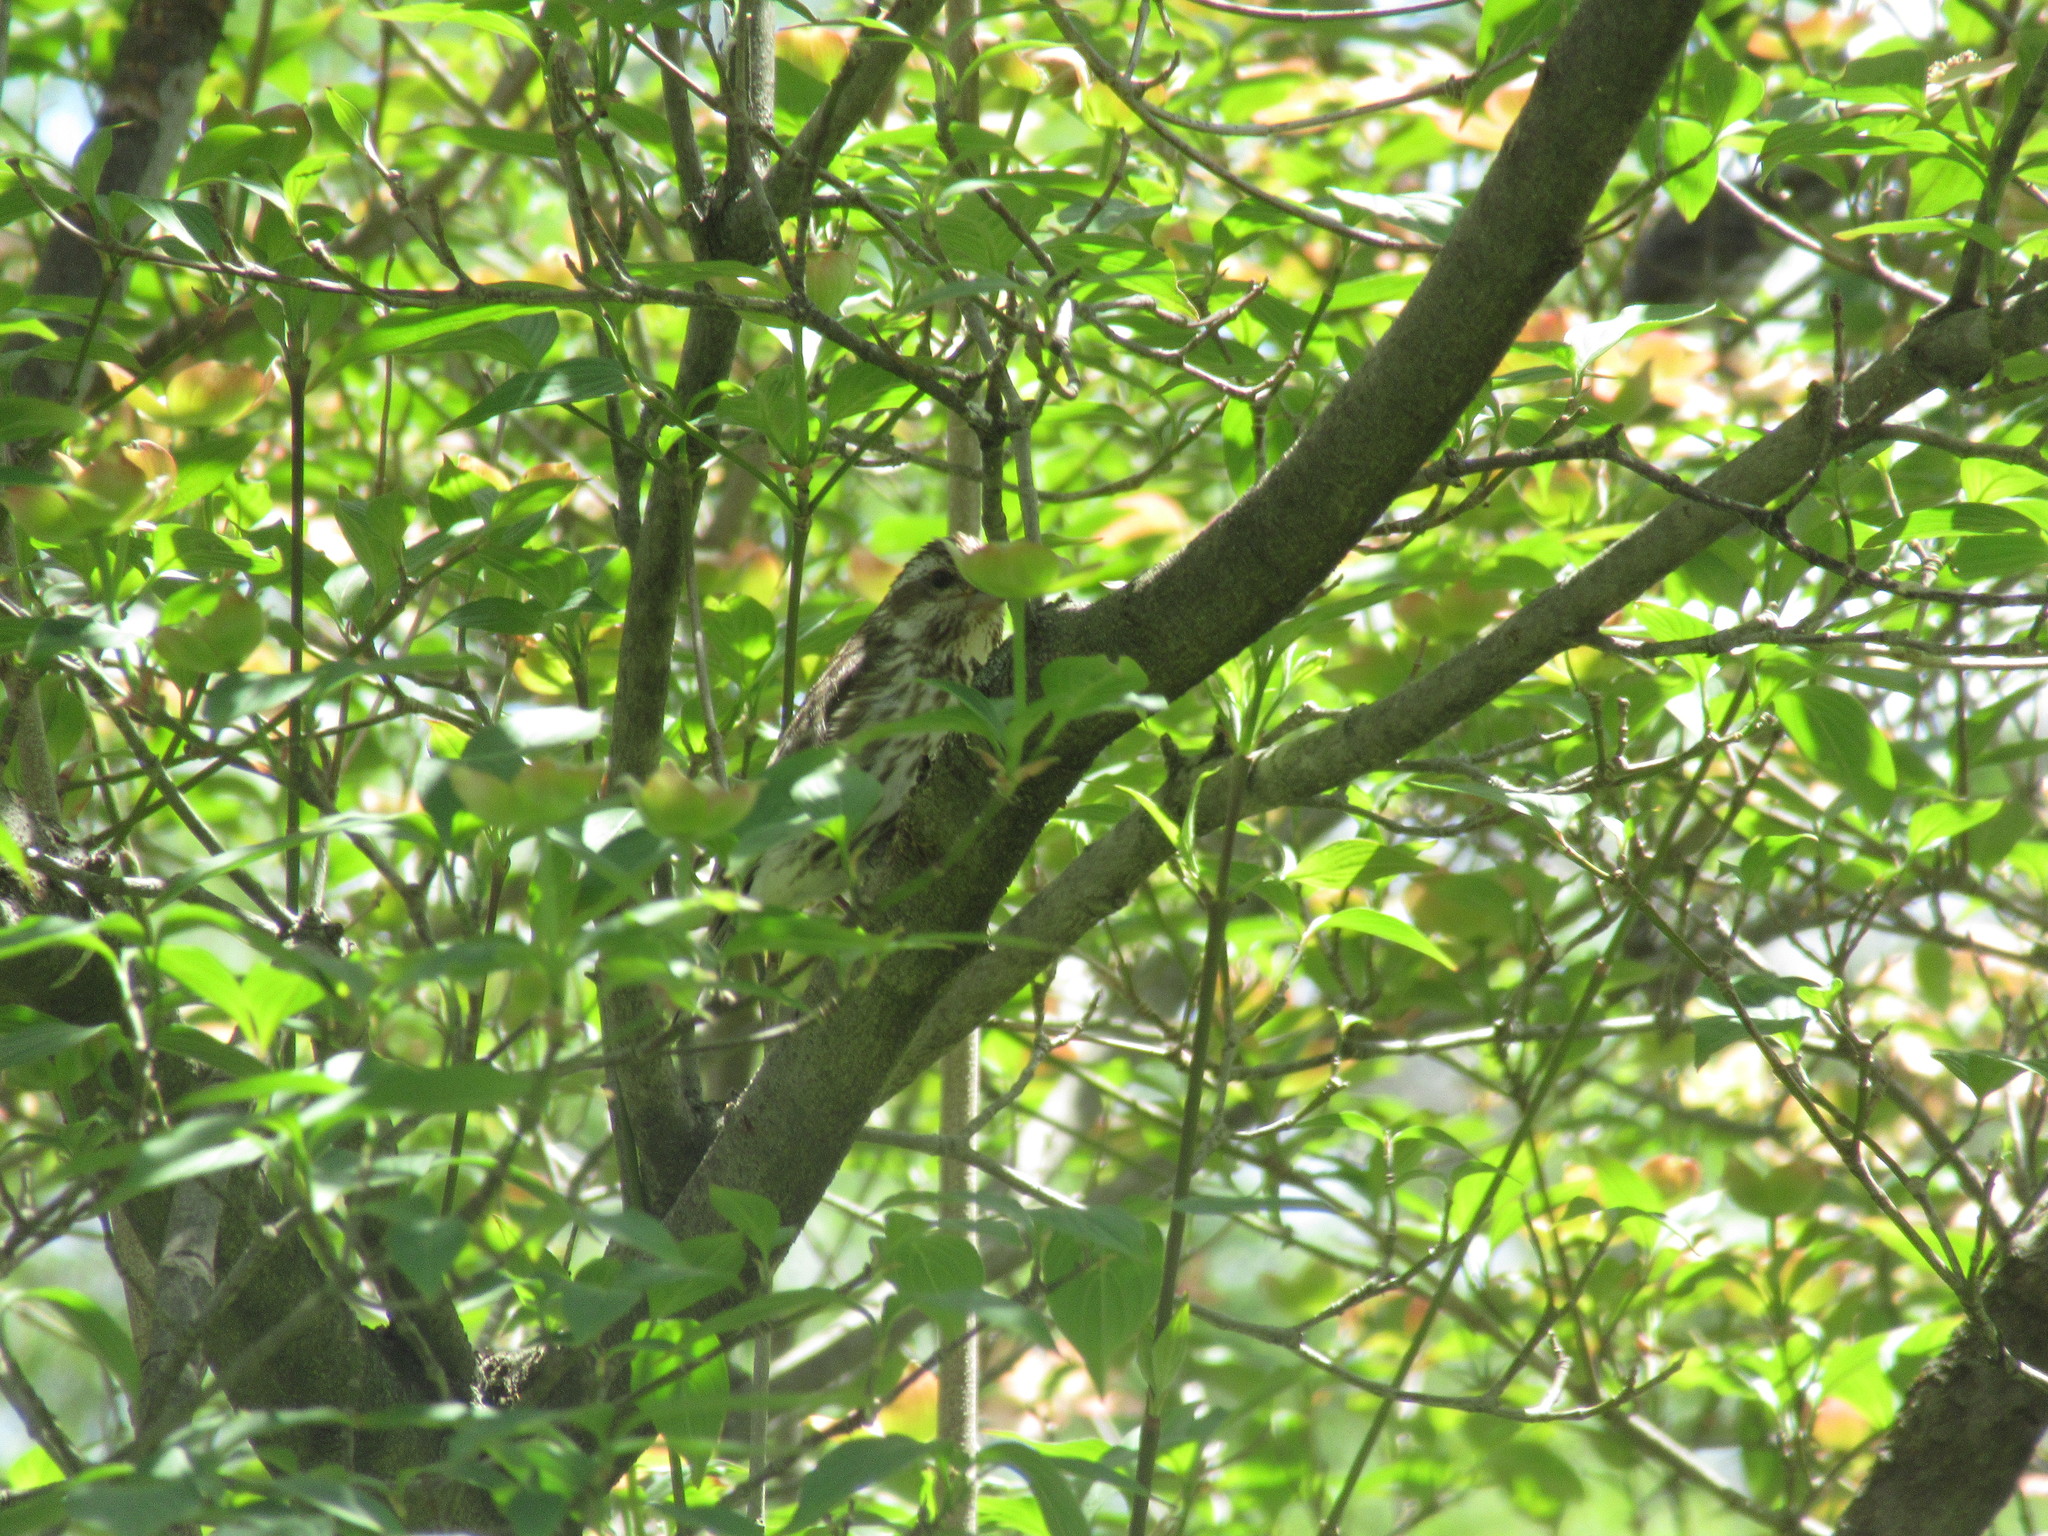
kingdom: Animalia
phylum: Chordata
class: Aves
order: Passeriformes
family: Fringillidae
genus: Haemorhous
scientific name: Haemorhous purpureus
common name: Purple finch
